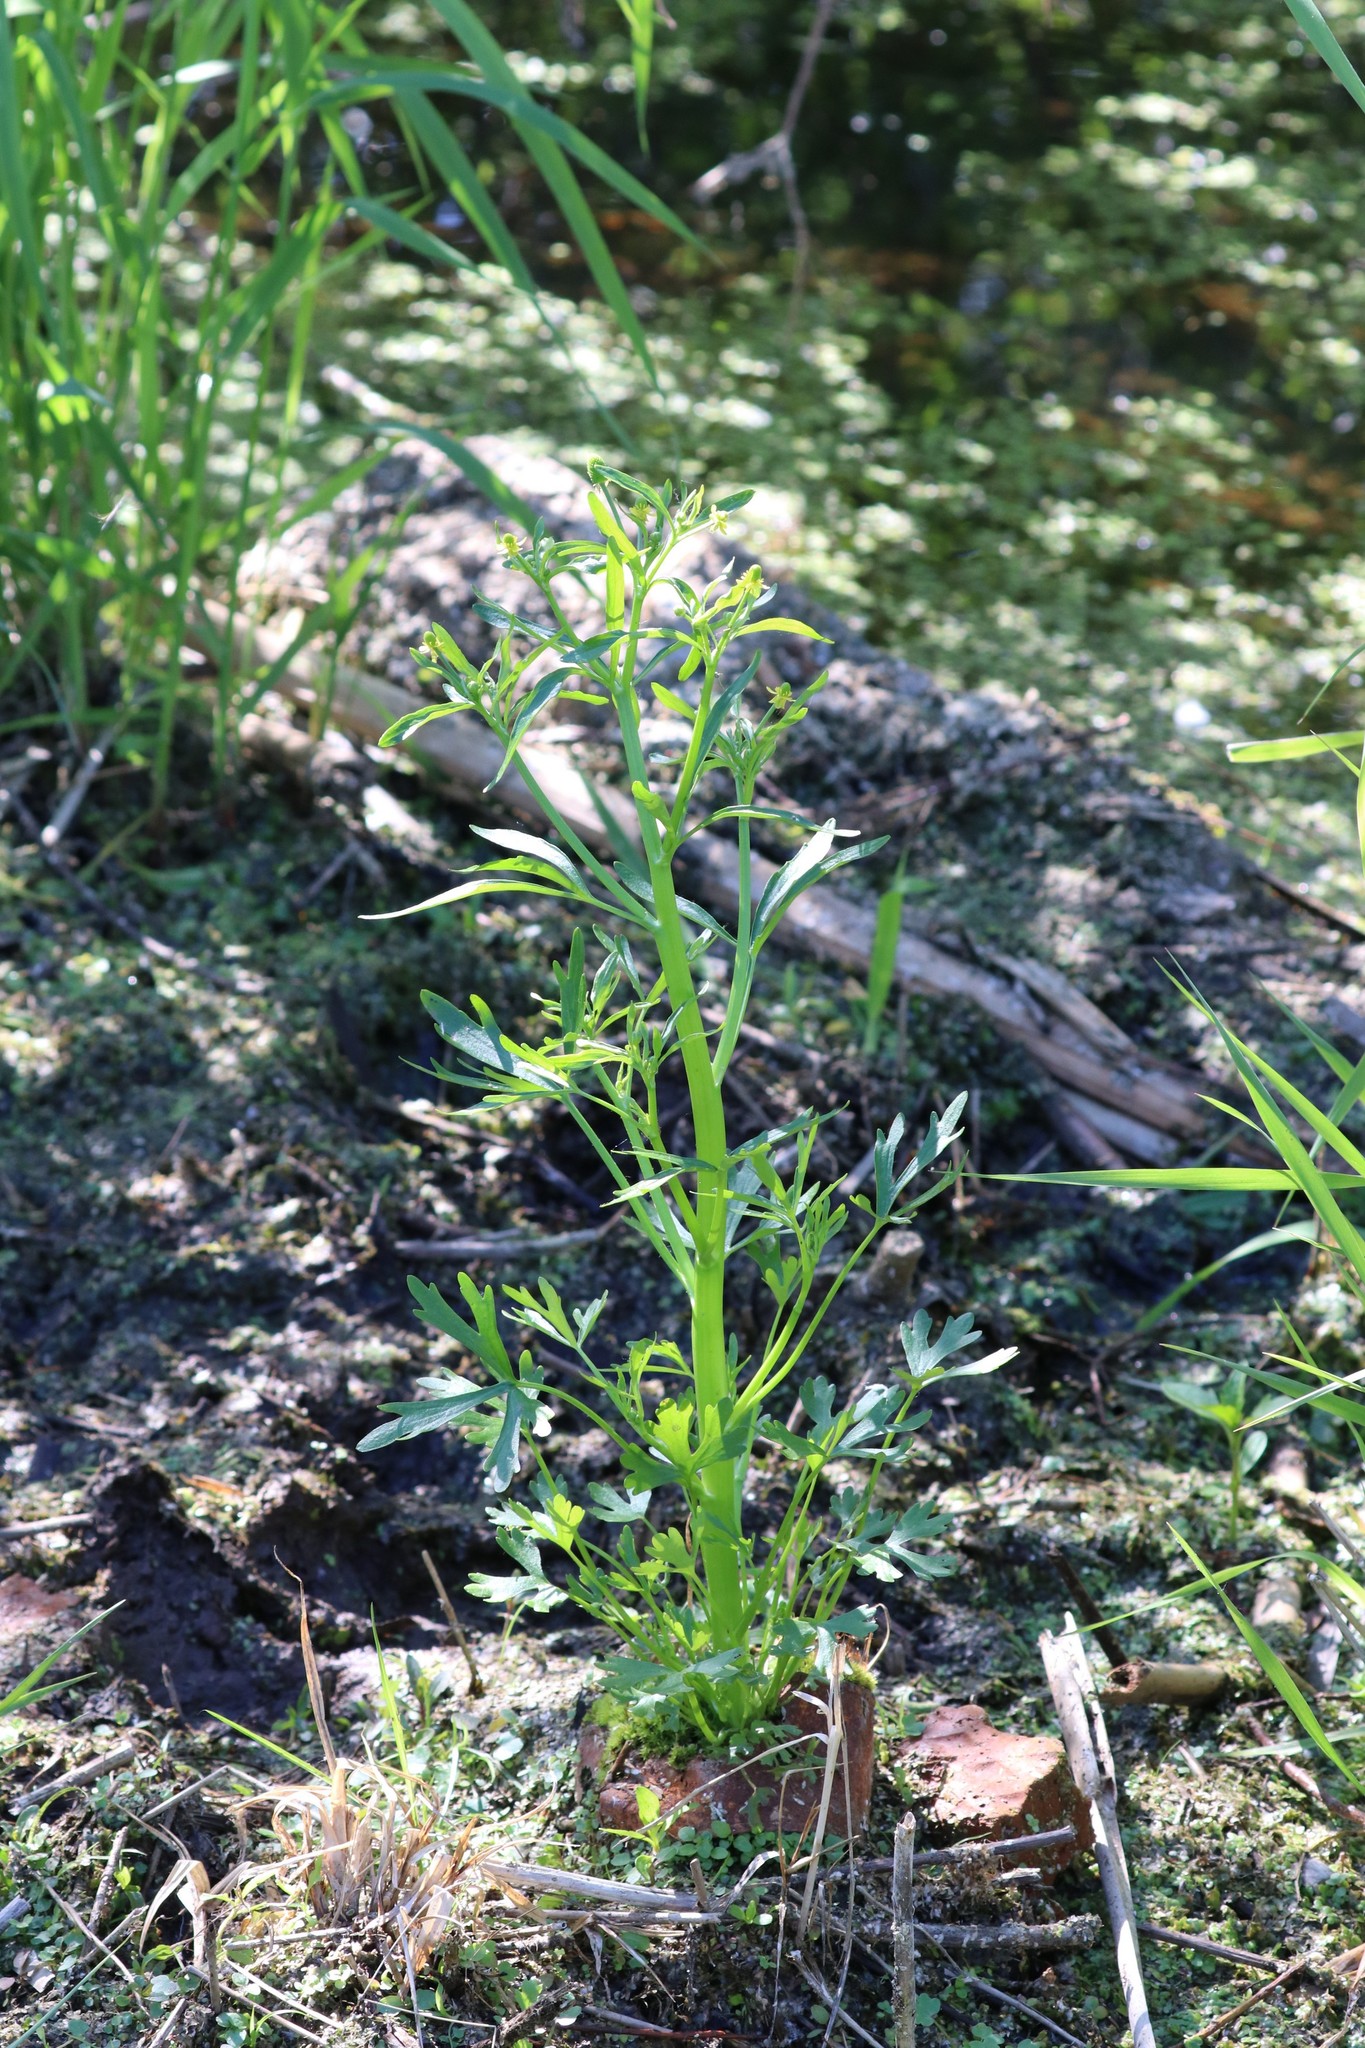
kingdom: Plantae
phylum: Tracheophyta
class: Magnoliopsida
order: Ranunculales
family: Ranunculaceae
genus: Ranunculus
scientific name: Ranunculus sceleratus
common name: Celery-leaved buttercup
